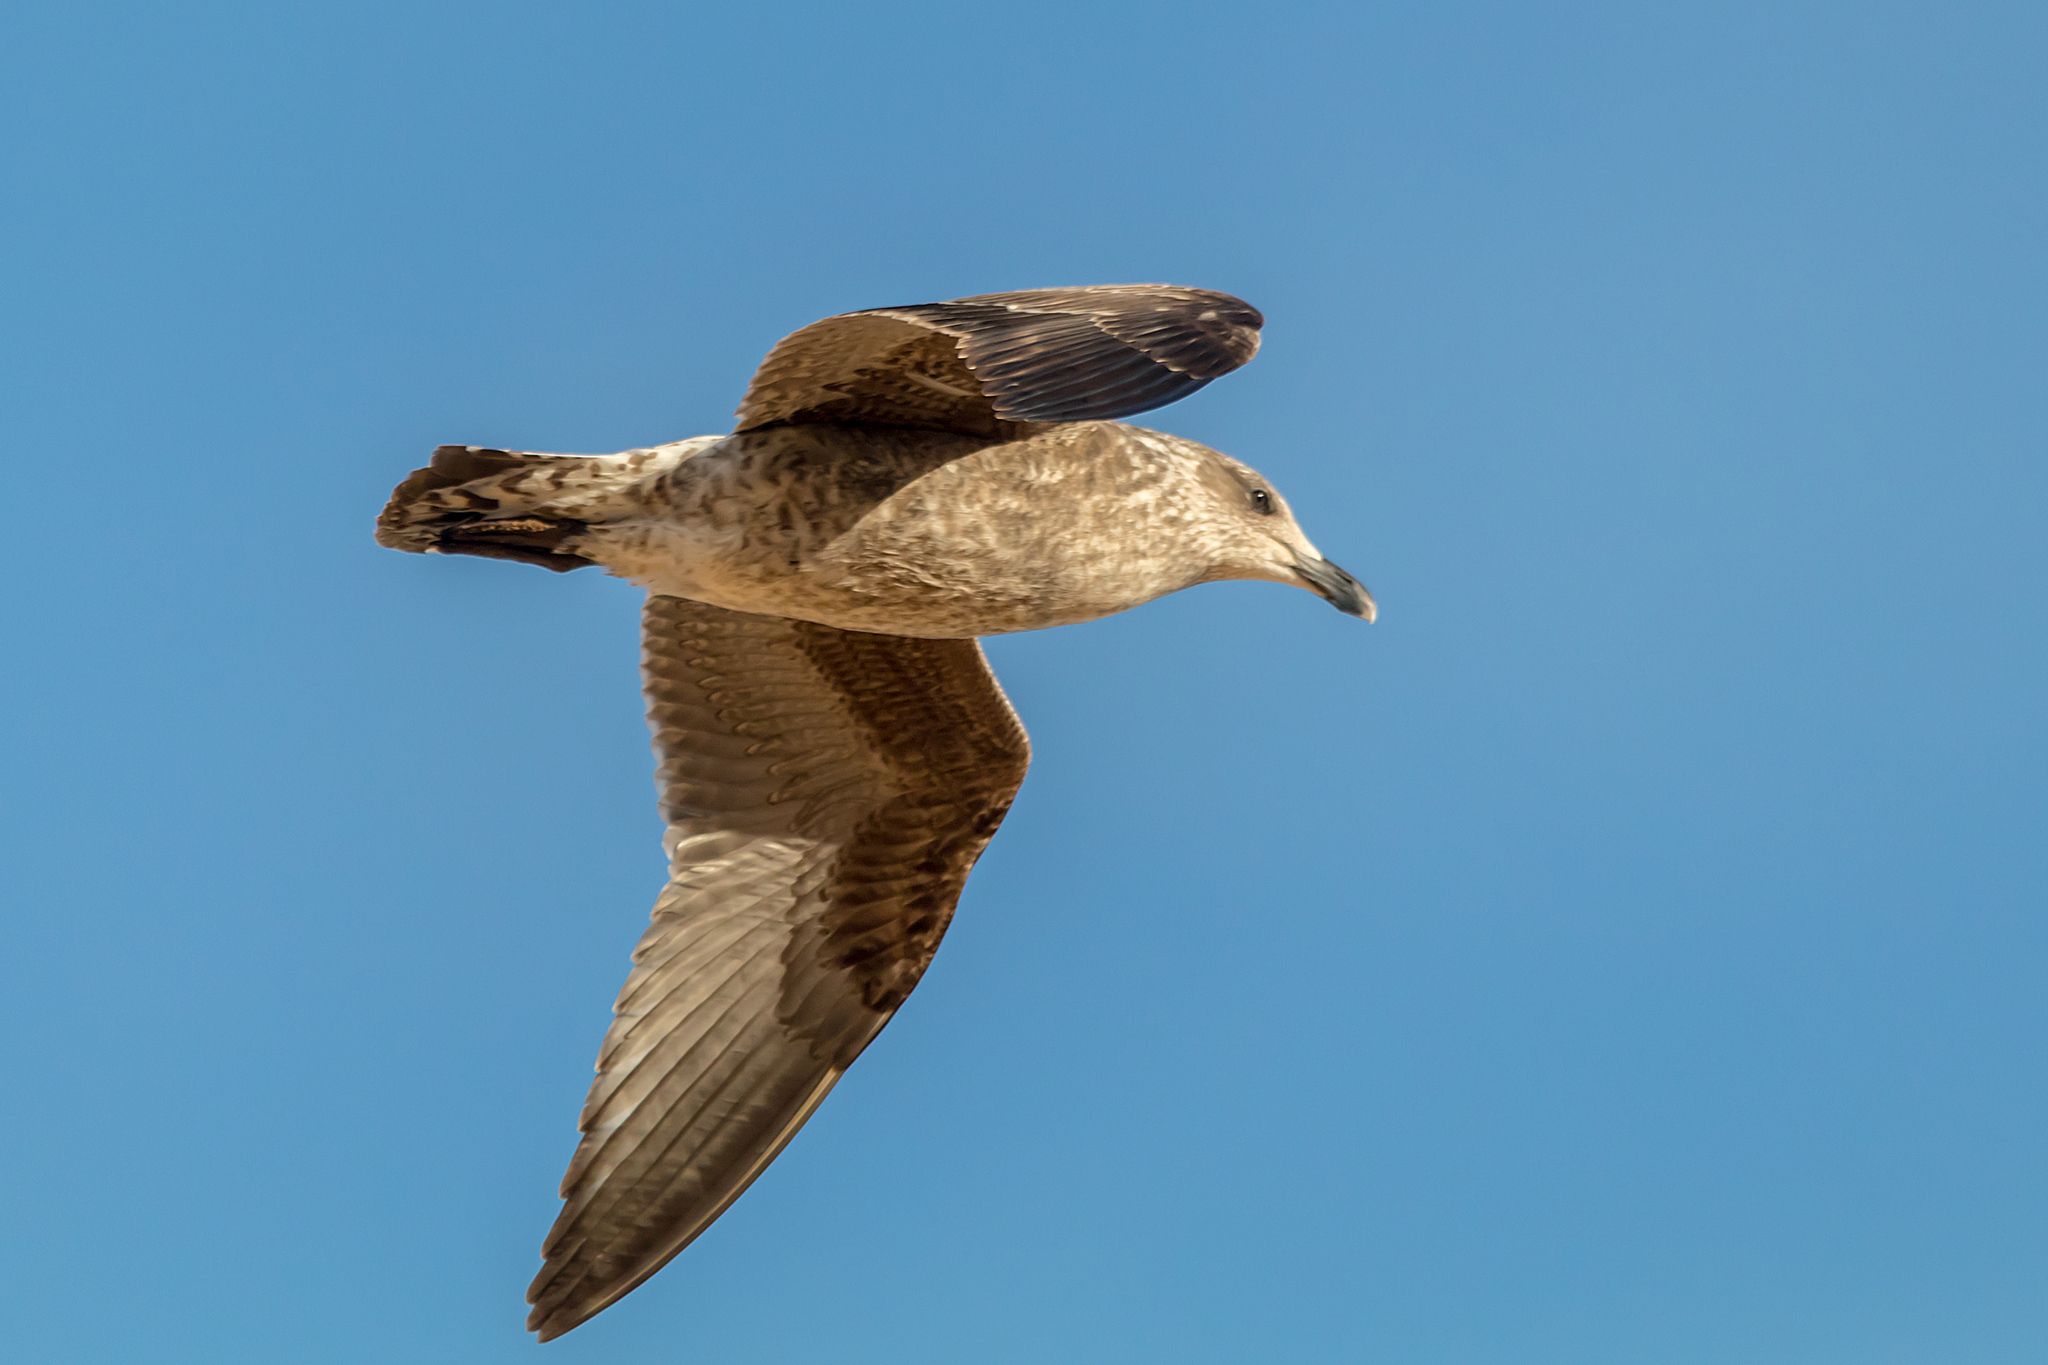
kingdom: Animalia
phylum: Chordata
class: Aves
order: Charadriiformes
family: Laridae
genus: Larus
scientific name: Larus dominicanus
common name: Kelp gull
